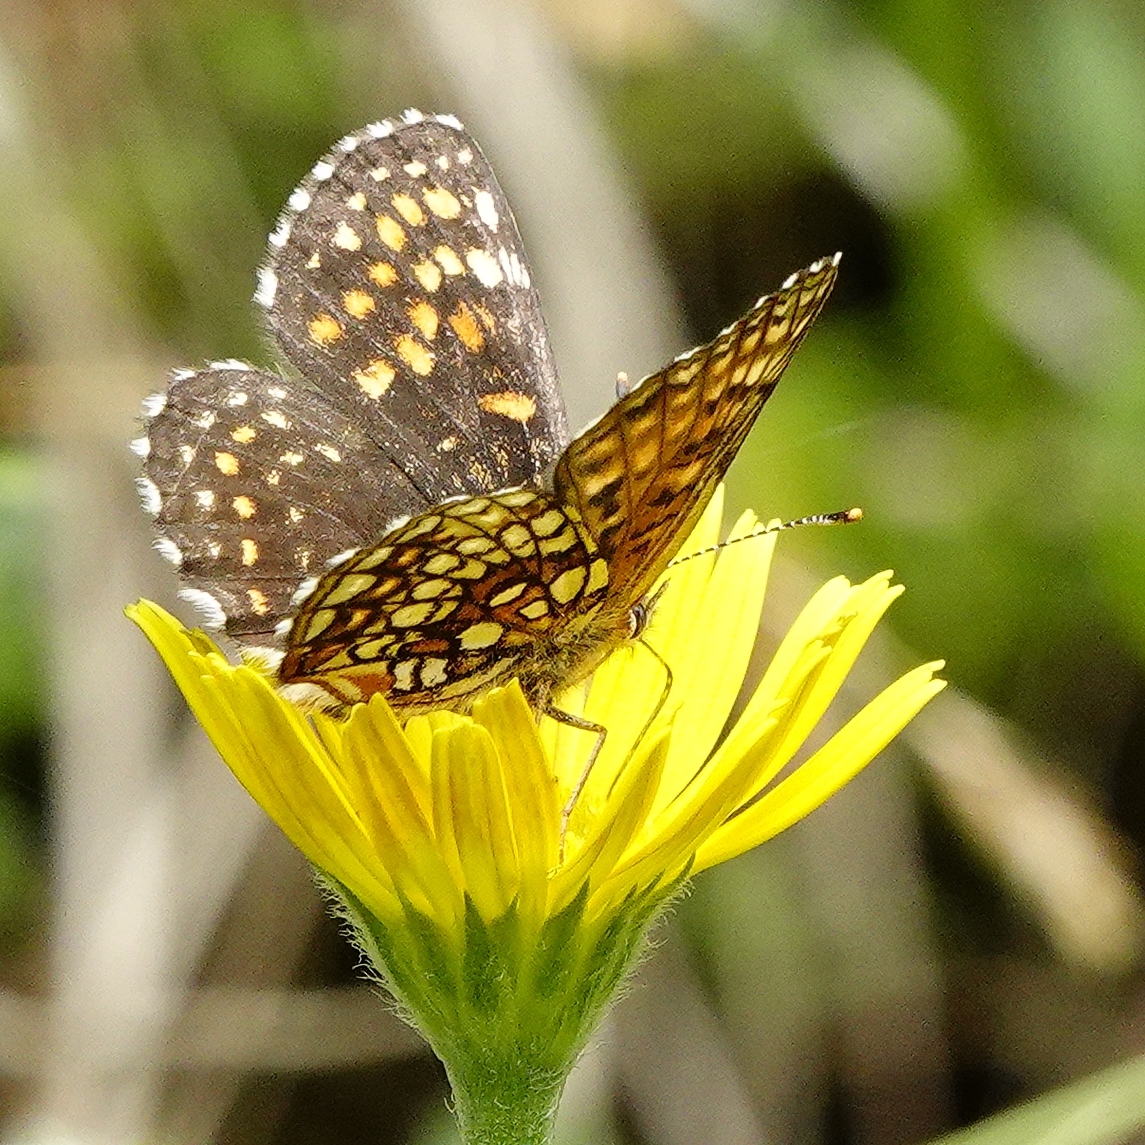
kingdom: Animalia
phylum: Arthropoda
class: Insecta
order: Lepidoptera
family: Nymphalidae
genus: Melitaea
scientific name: Melitaea diamina
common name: False heath fritillary
